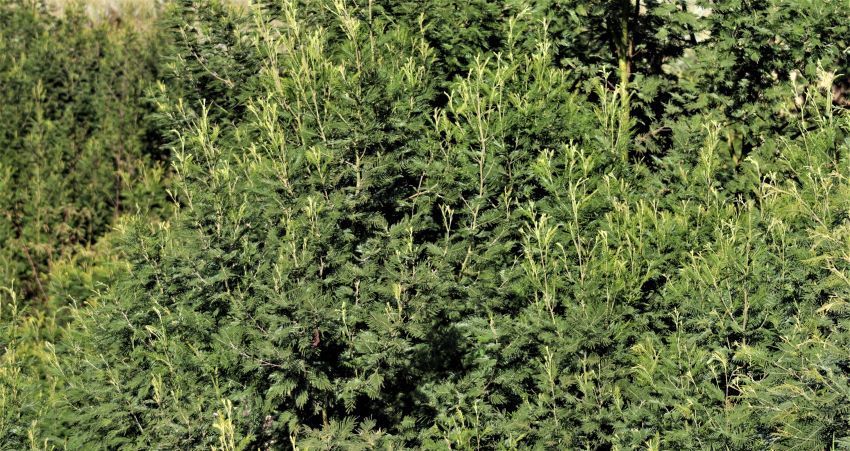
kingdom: Plantae
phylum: Tracheophyta
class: Magnoliopsida
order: Fabales
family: Fabaceae
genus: Acacia
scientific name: Acacia mearnsii
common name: Black wattle
